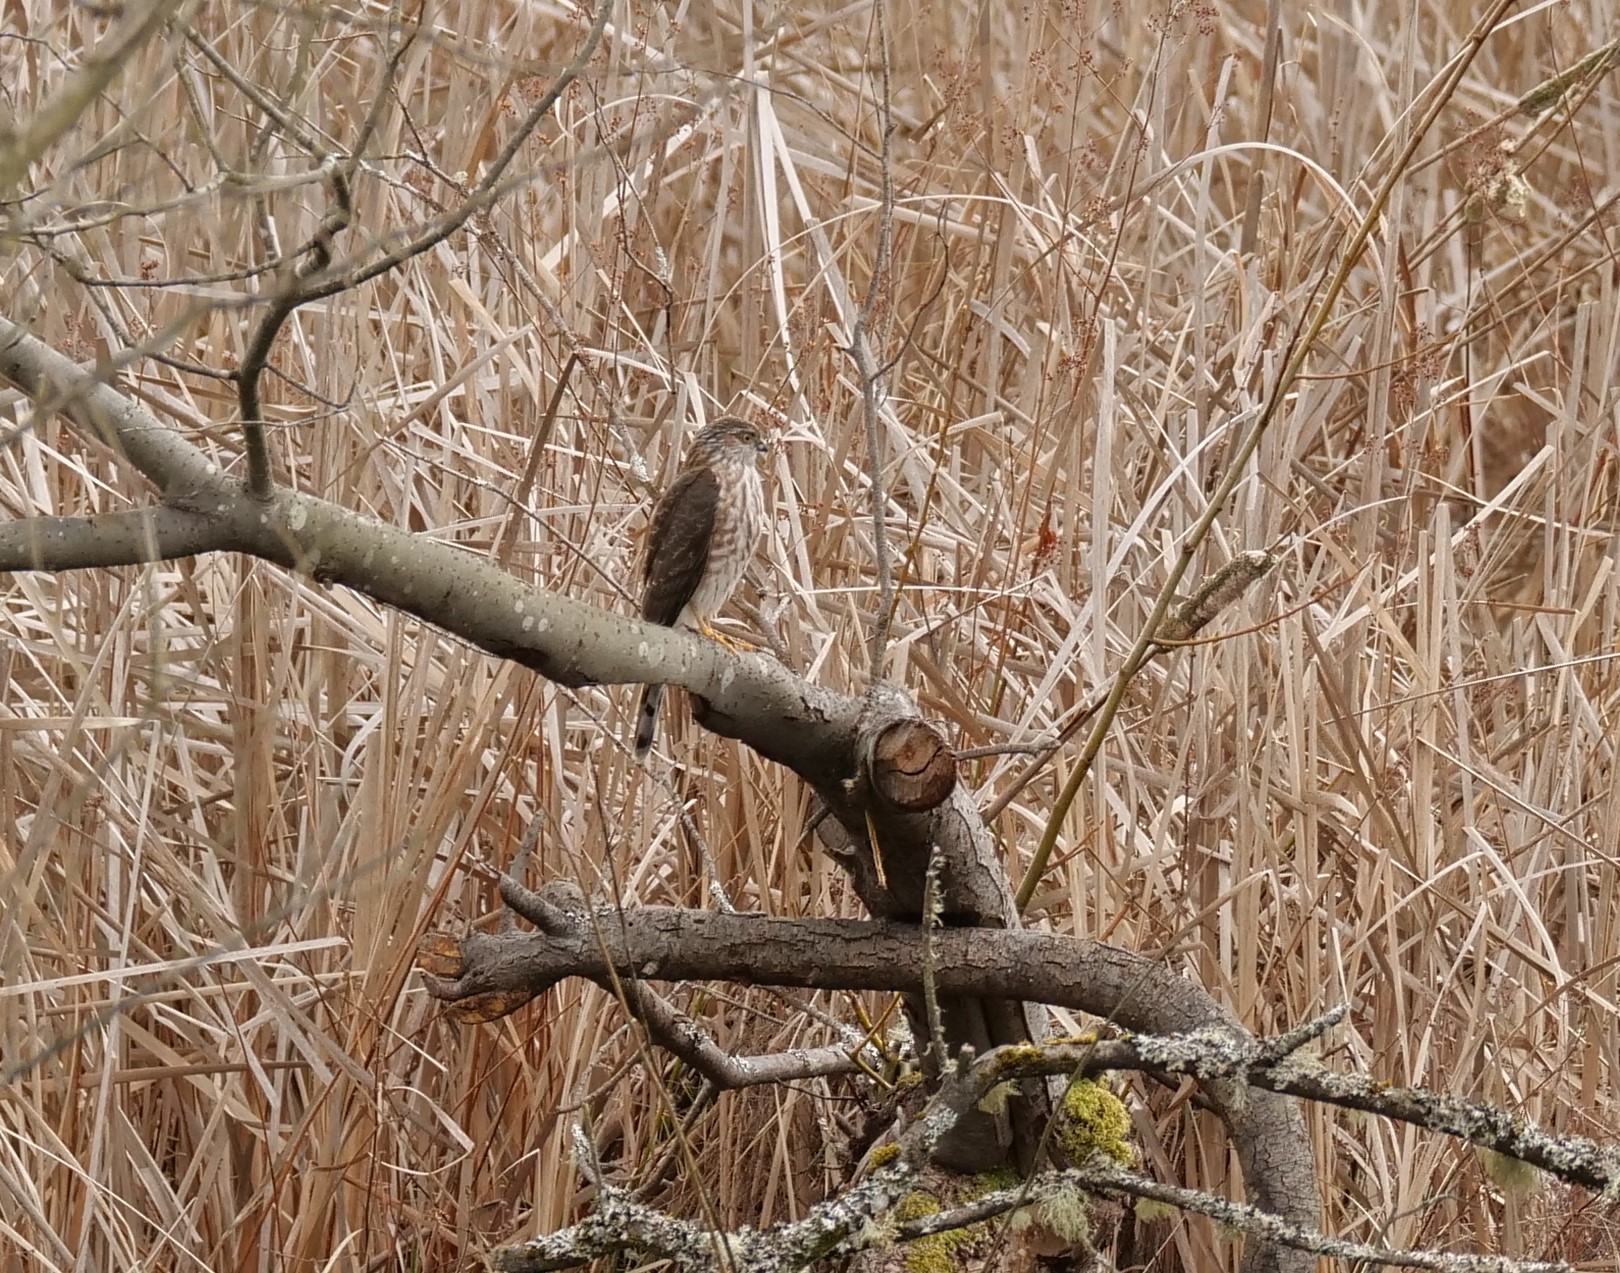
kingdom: Animalia
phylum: Chordata
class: Aves
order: Accipitriformes
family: Accipitridae
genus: Accipiter
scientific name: Accipiter striatus
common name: Sharp-shinned hawk
